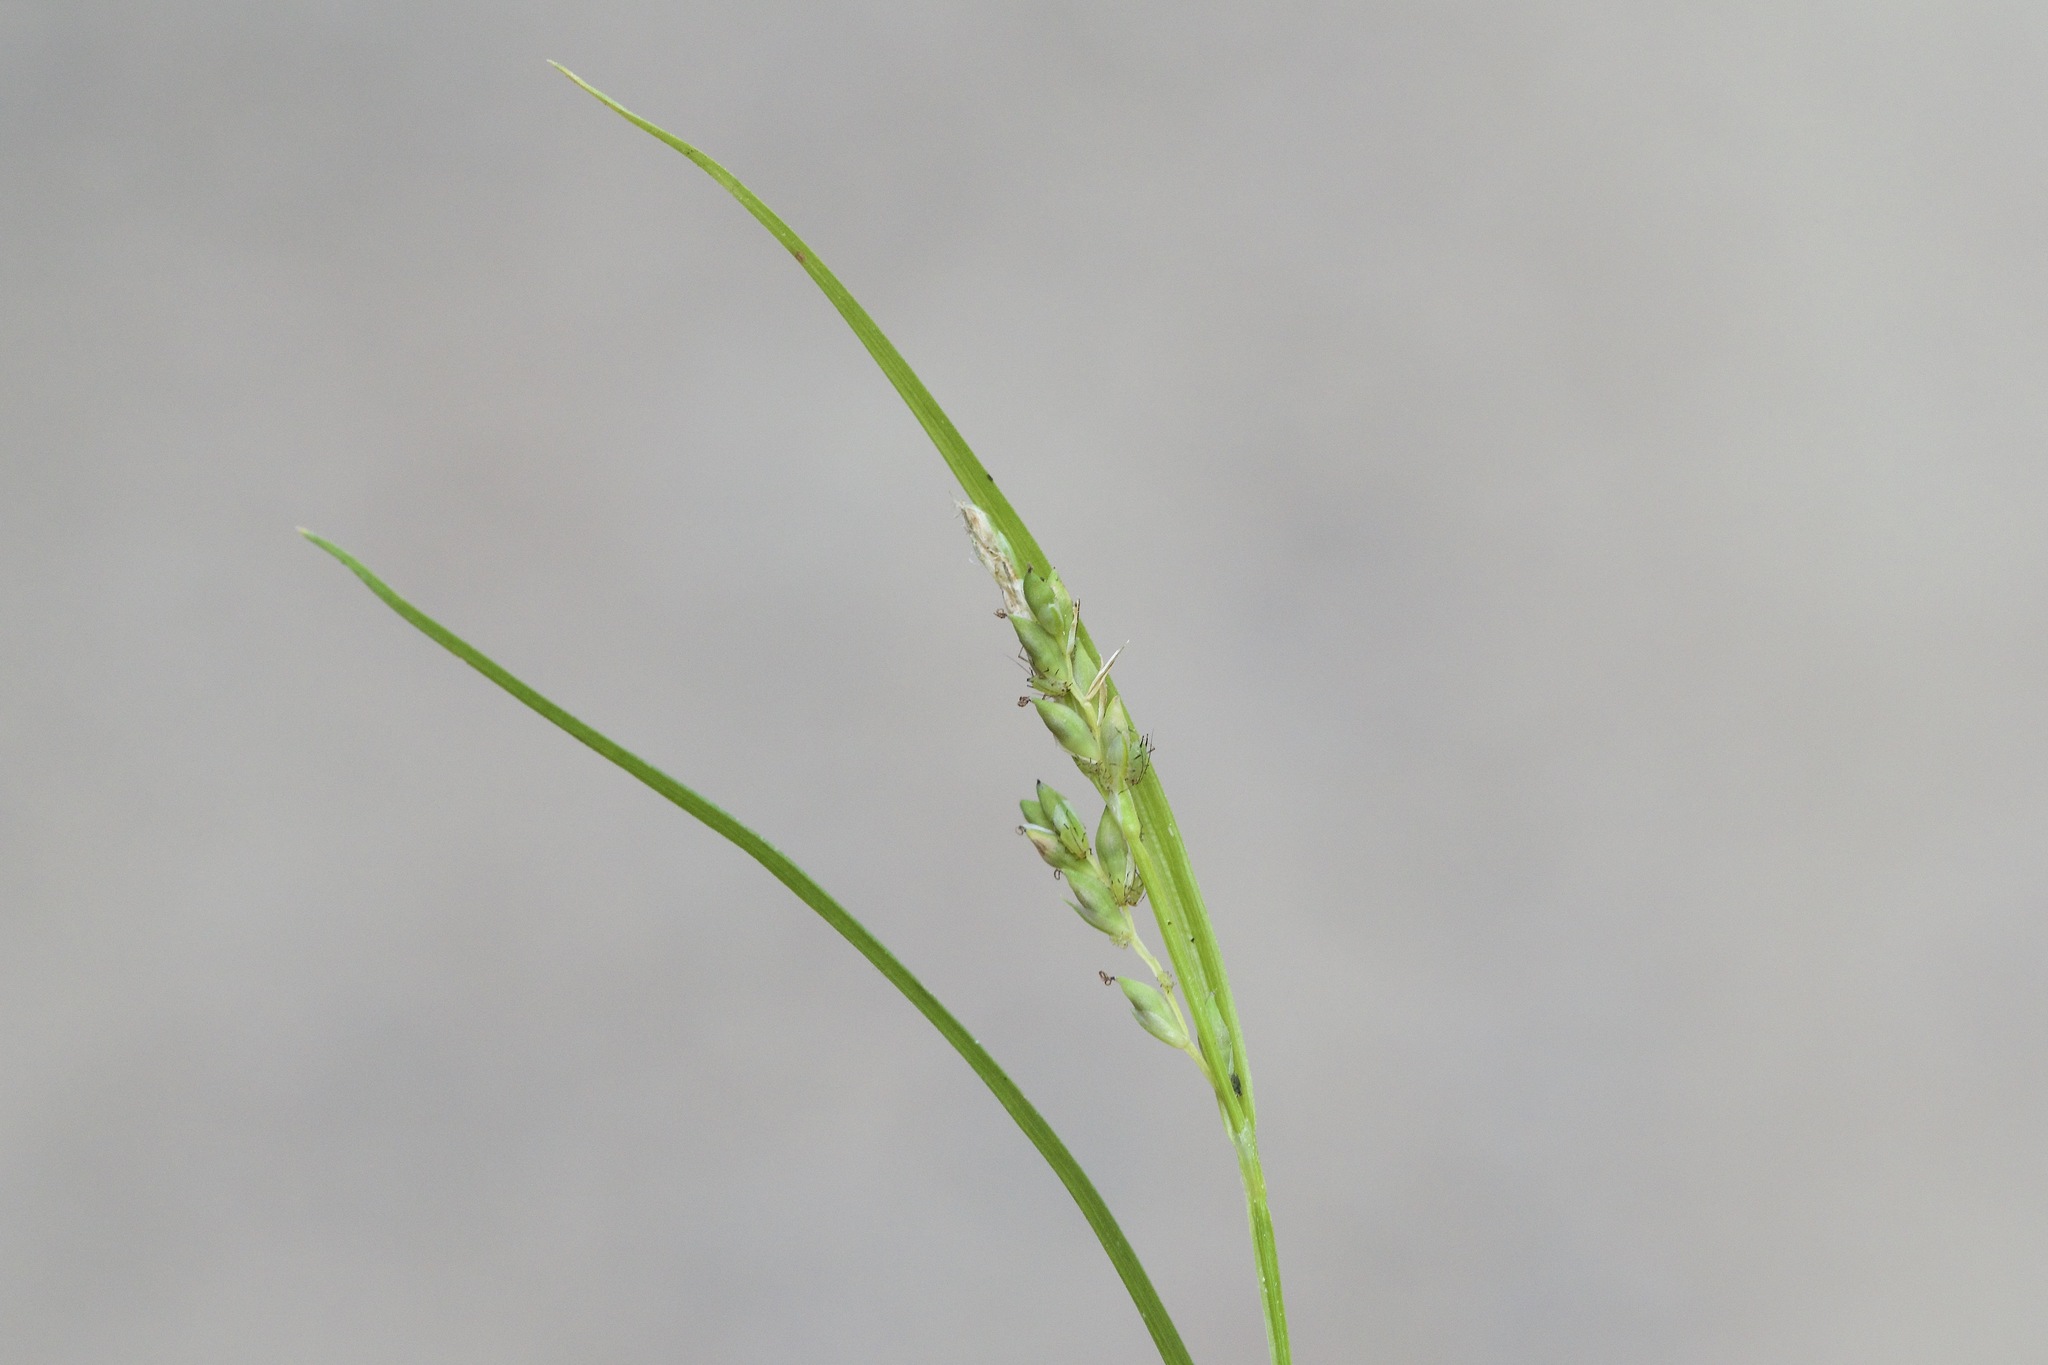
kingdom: Plantae
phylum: Tracheophyta
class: Liliopsida
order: Poales
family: Cyperaceae
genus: Carex
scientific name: Carex leptonervia
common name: Few-nerved wood sedge
